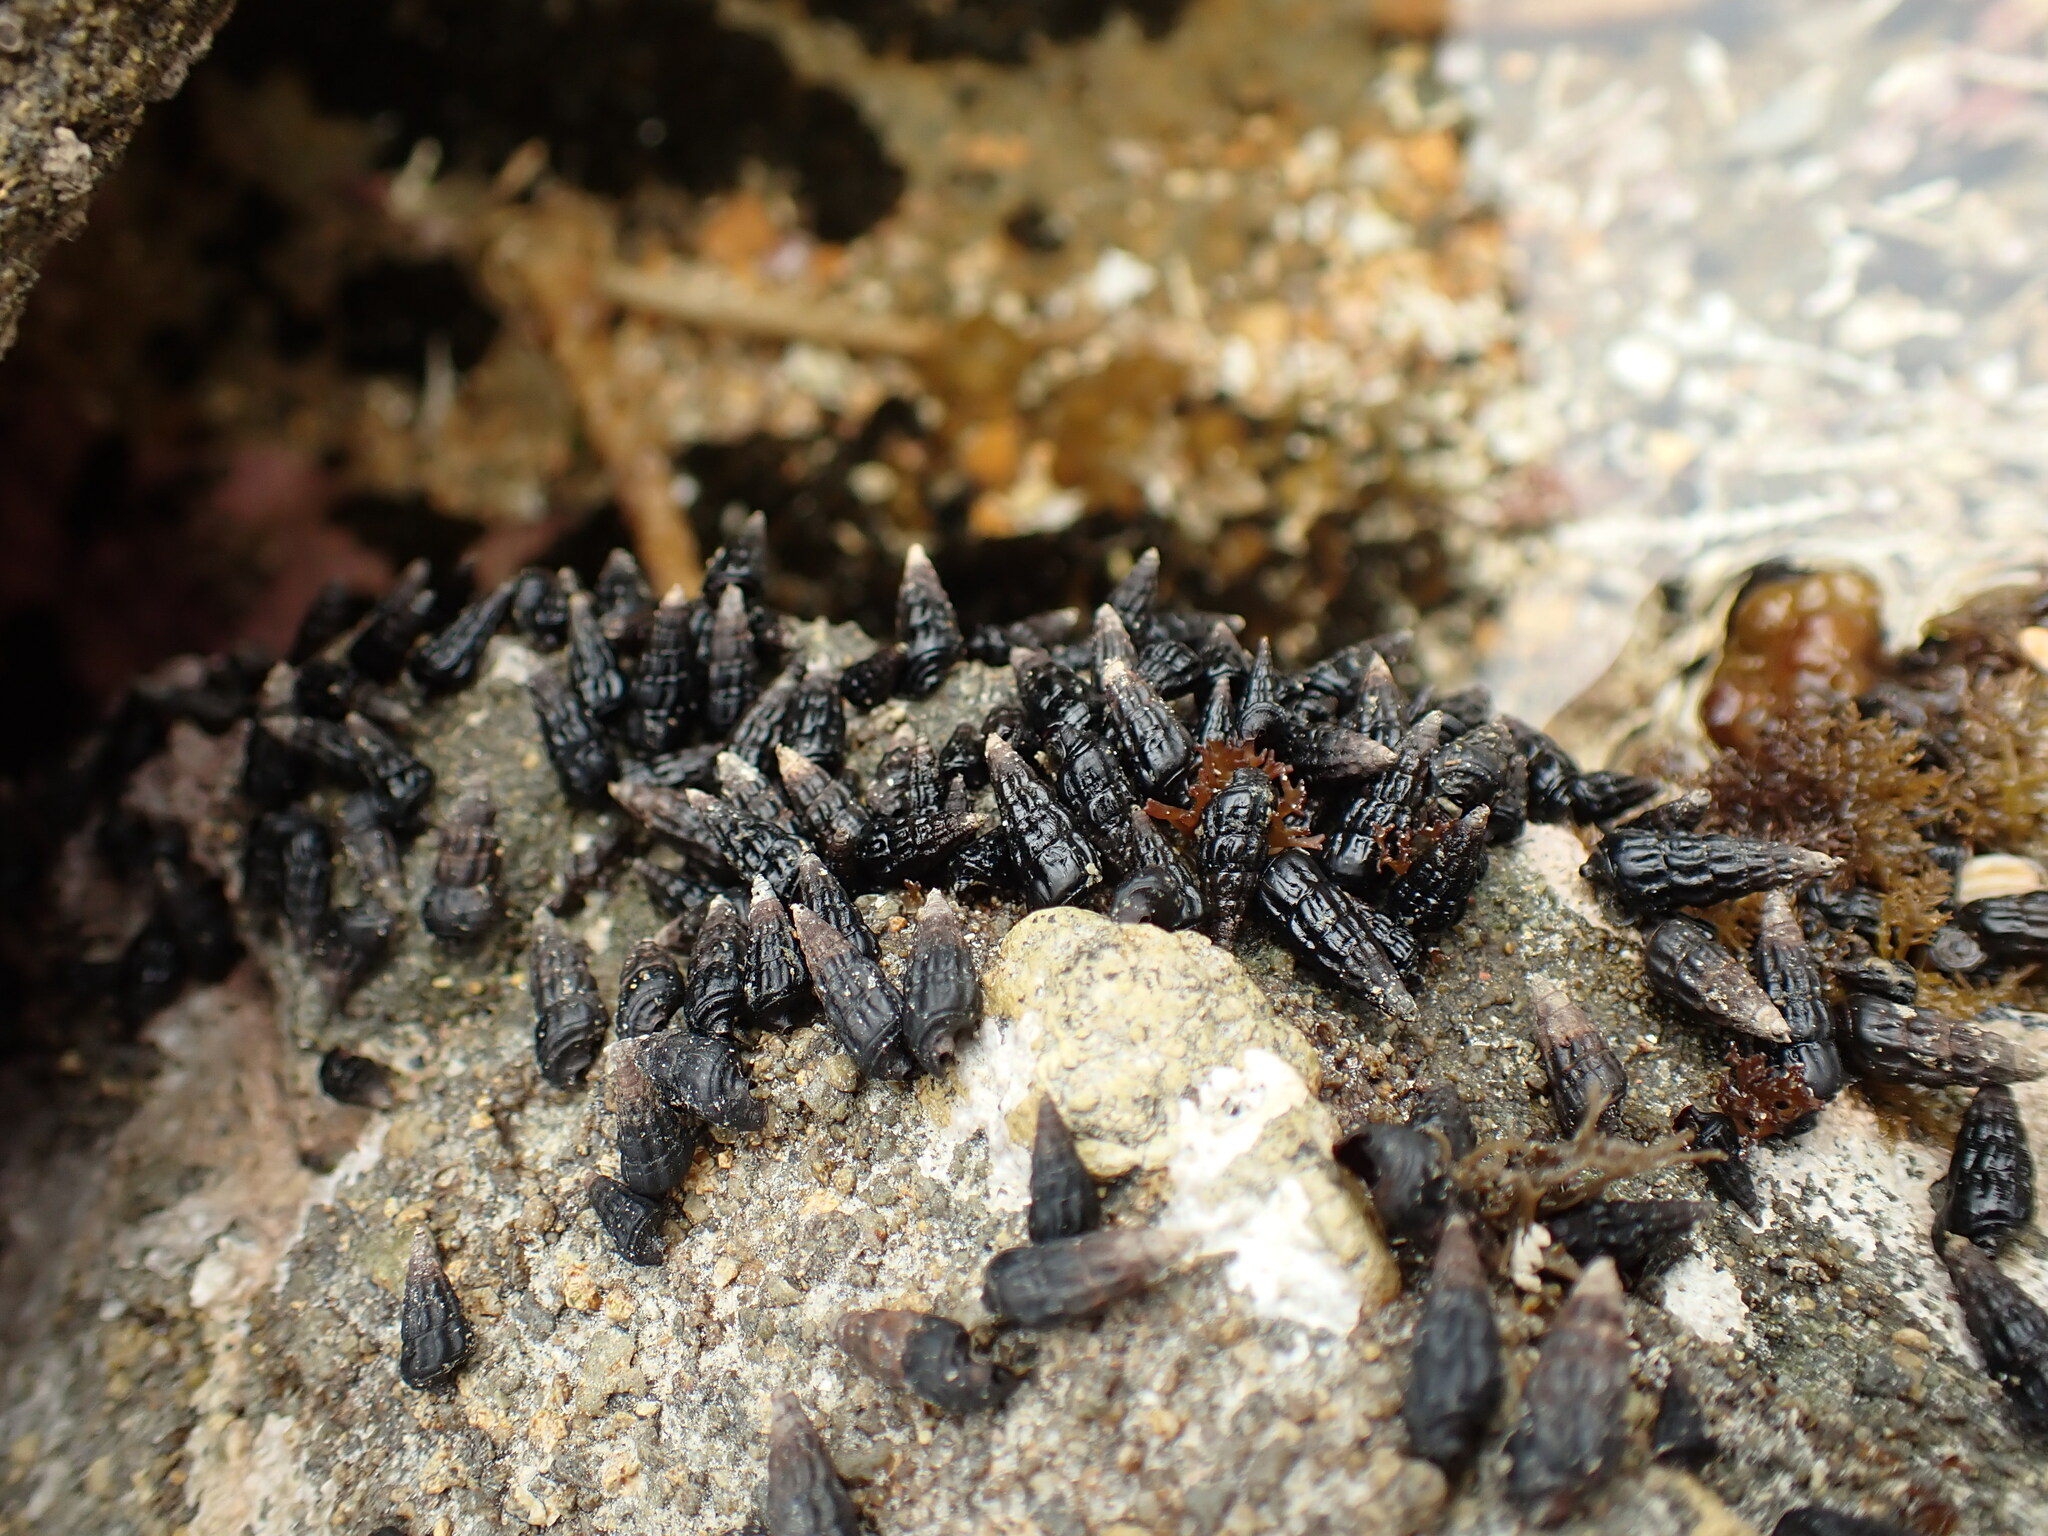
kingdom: Animalia
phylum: Mollusca
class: Gastropoda
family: Batillariidae
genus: Zeacumantus
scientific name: Zeacumantus subcarinatus
